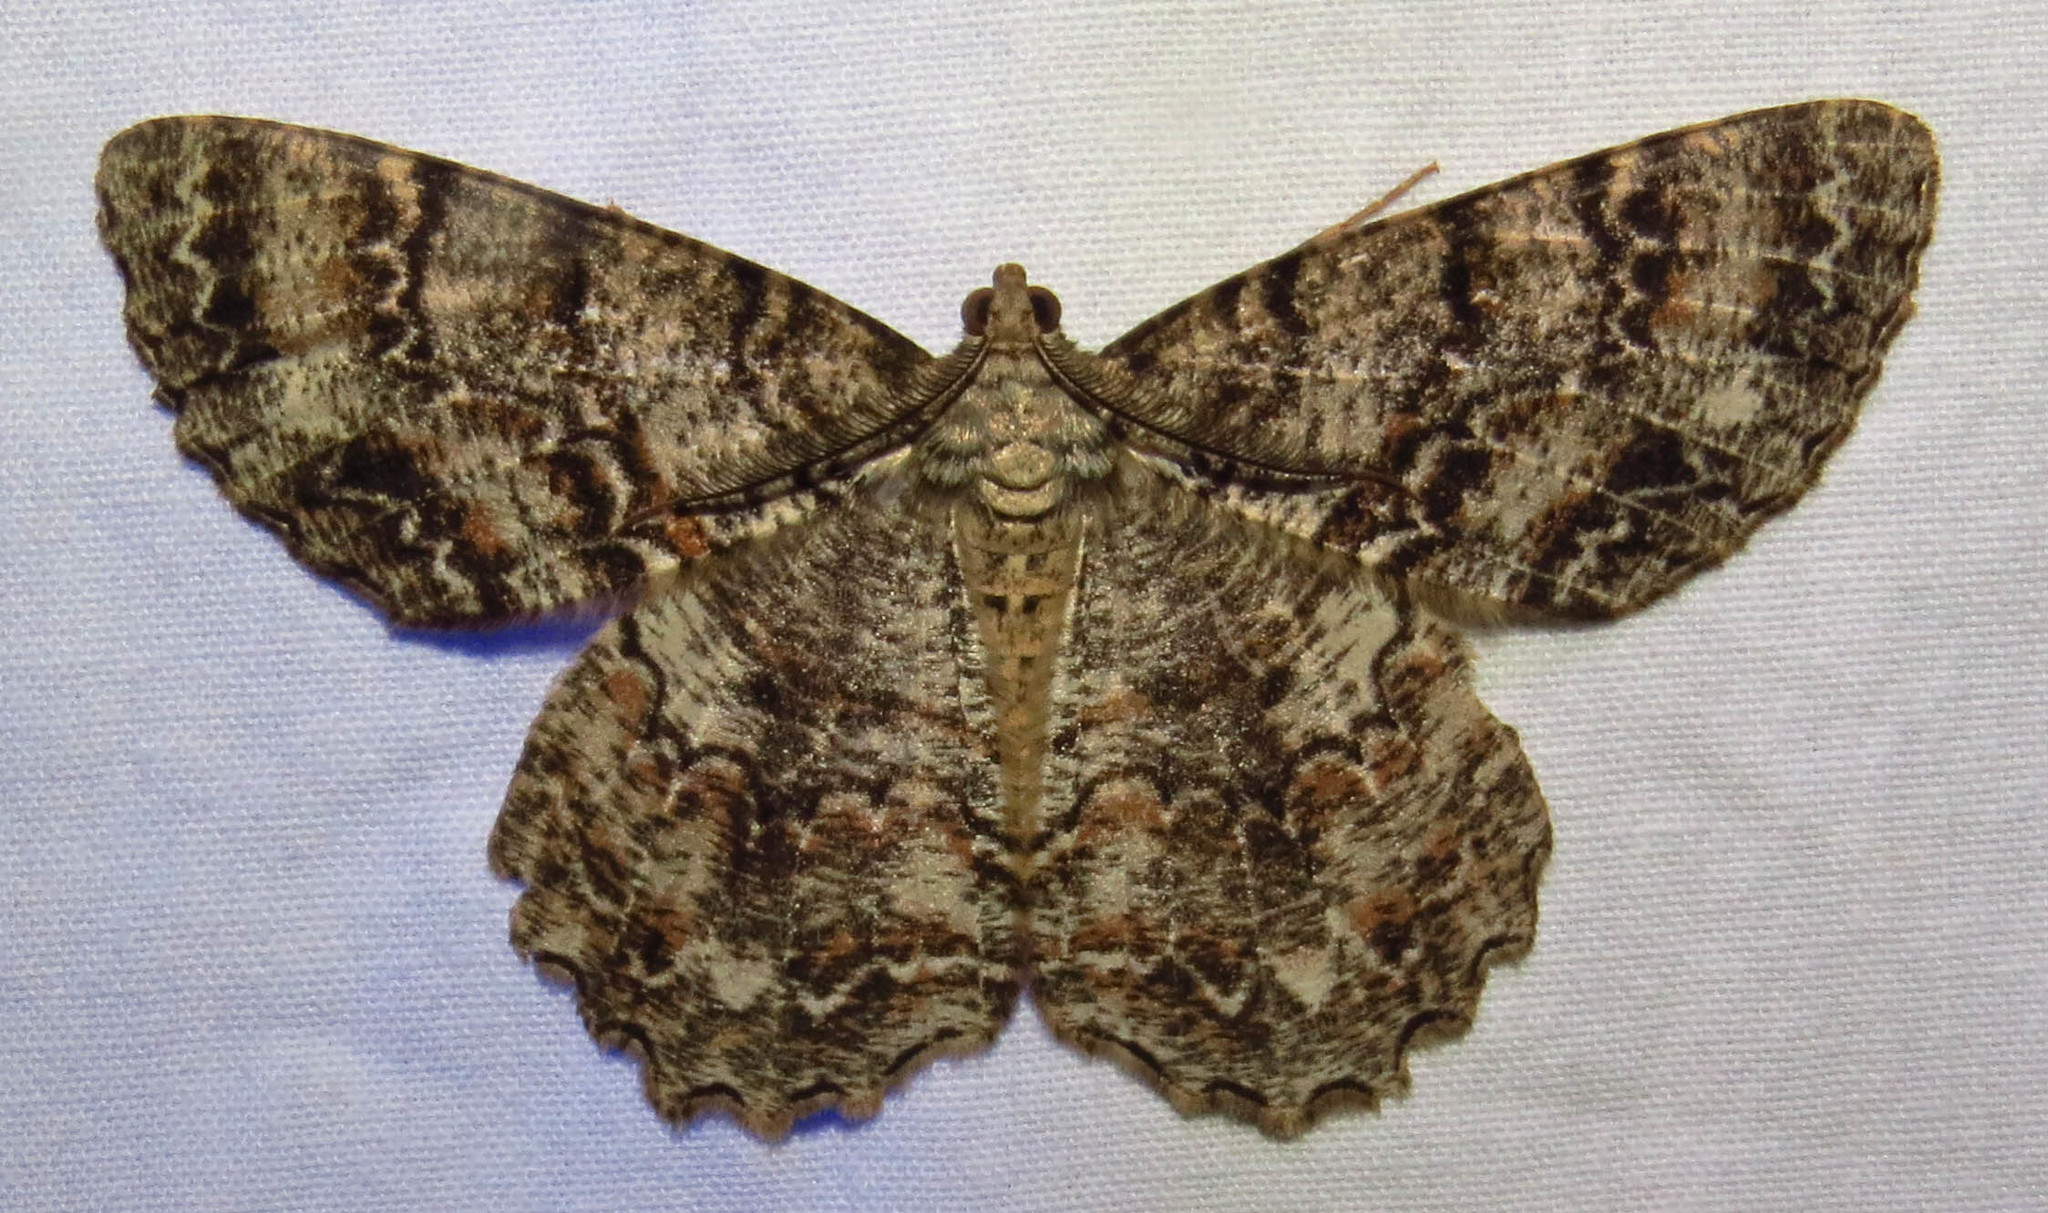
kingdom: Animalia
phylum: Arthropoda
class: Insecta
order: Lepidoptera
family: Geometridae
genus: Epimecis
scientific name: Epimecis hortaria
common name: Tulip-tree beauty
